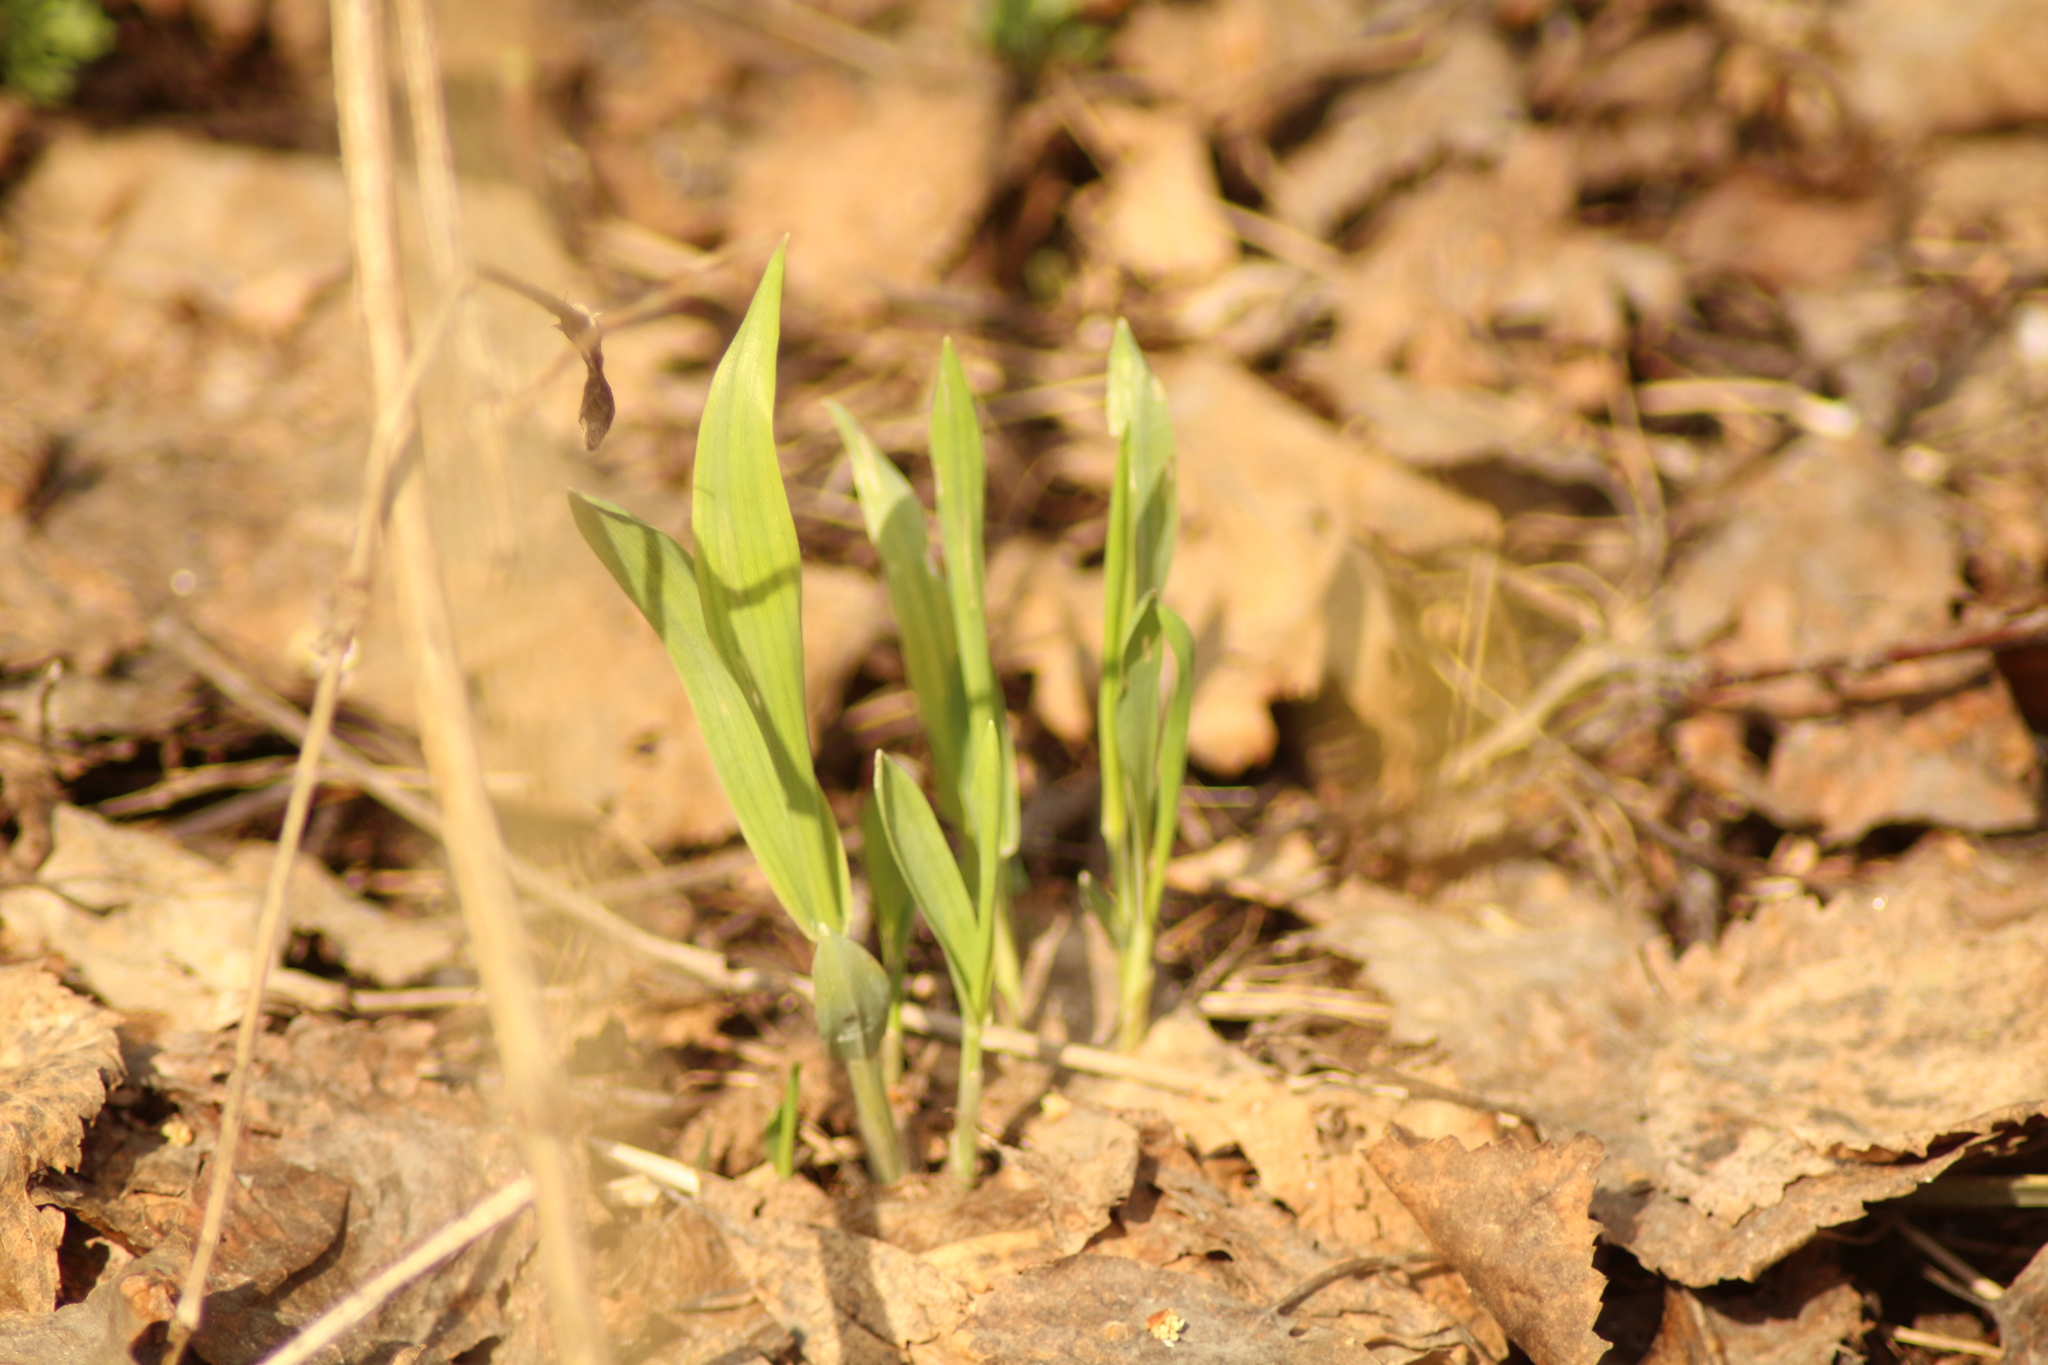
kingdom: Plantae
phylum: Tracheophyta
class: Liliopsida
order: Poales
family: Poaceae
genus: Milium
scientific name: Milium effusum
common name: Wood millet
